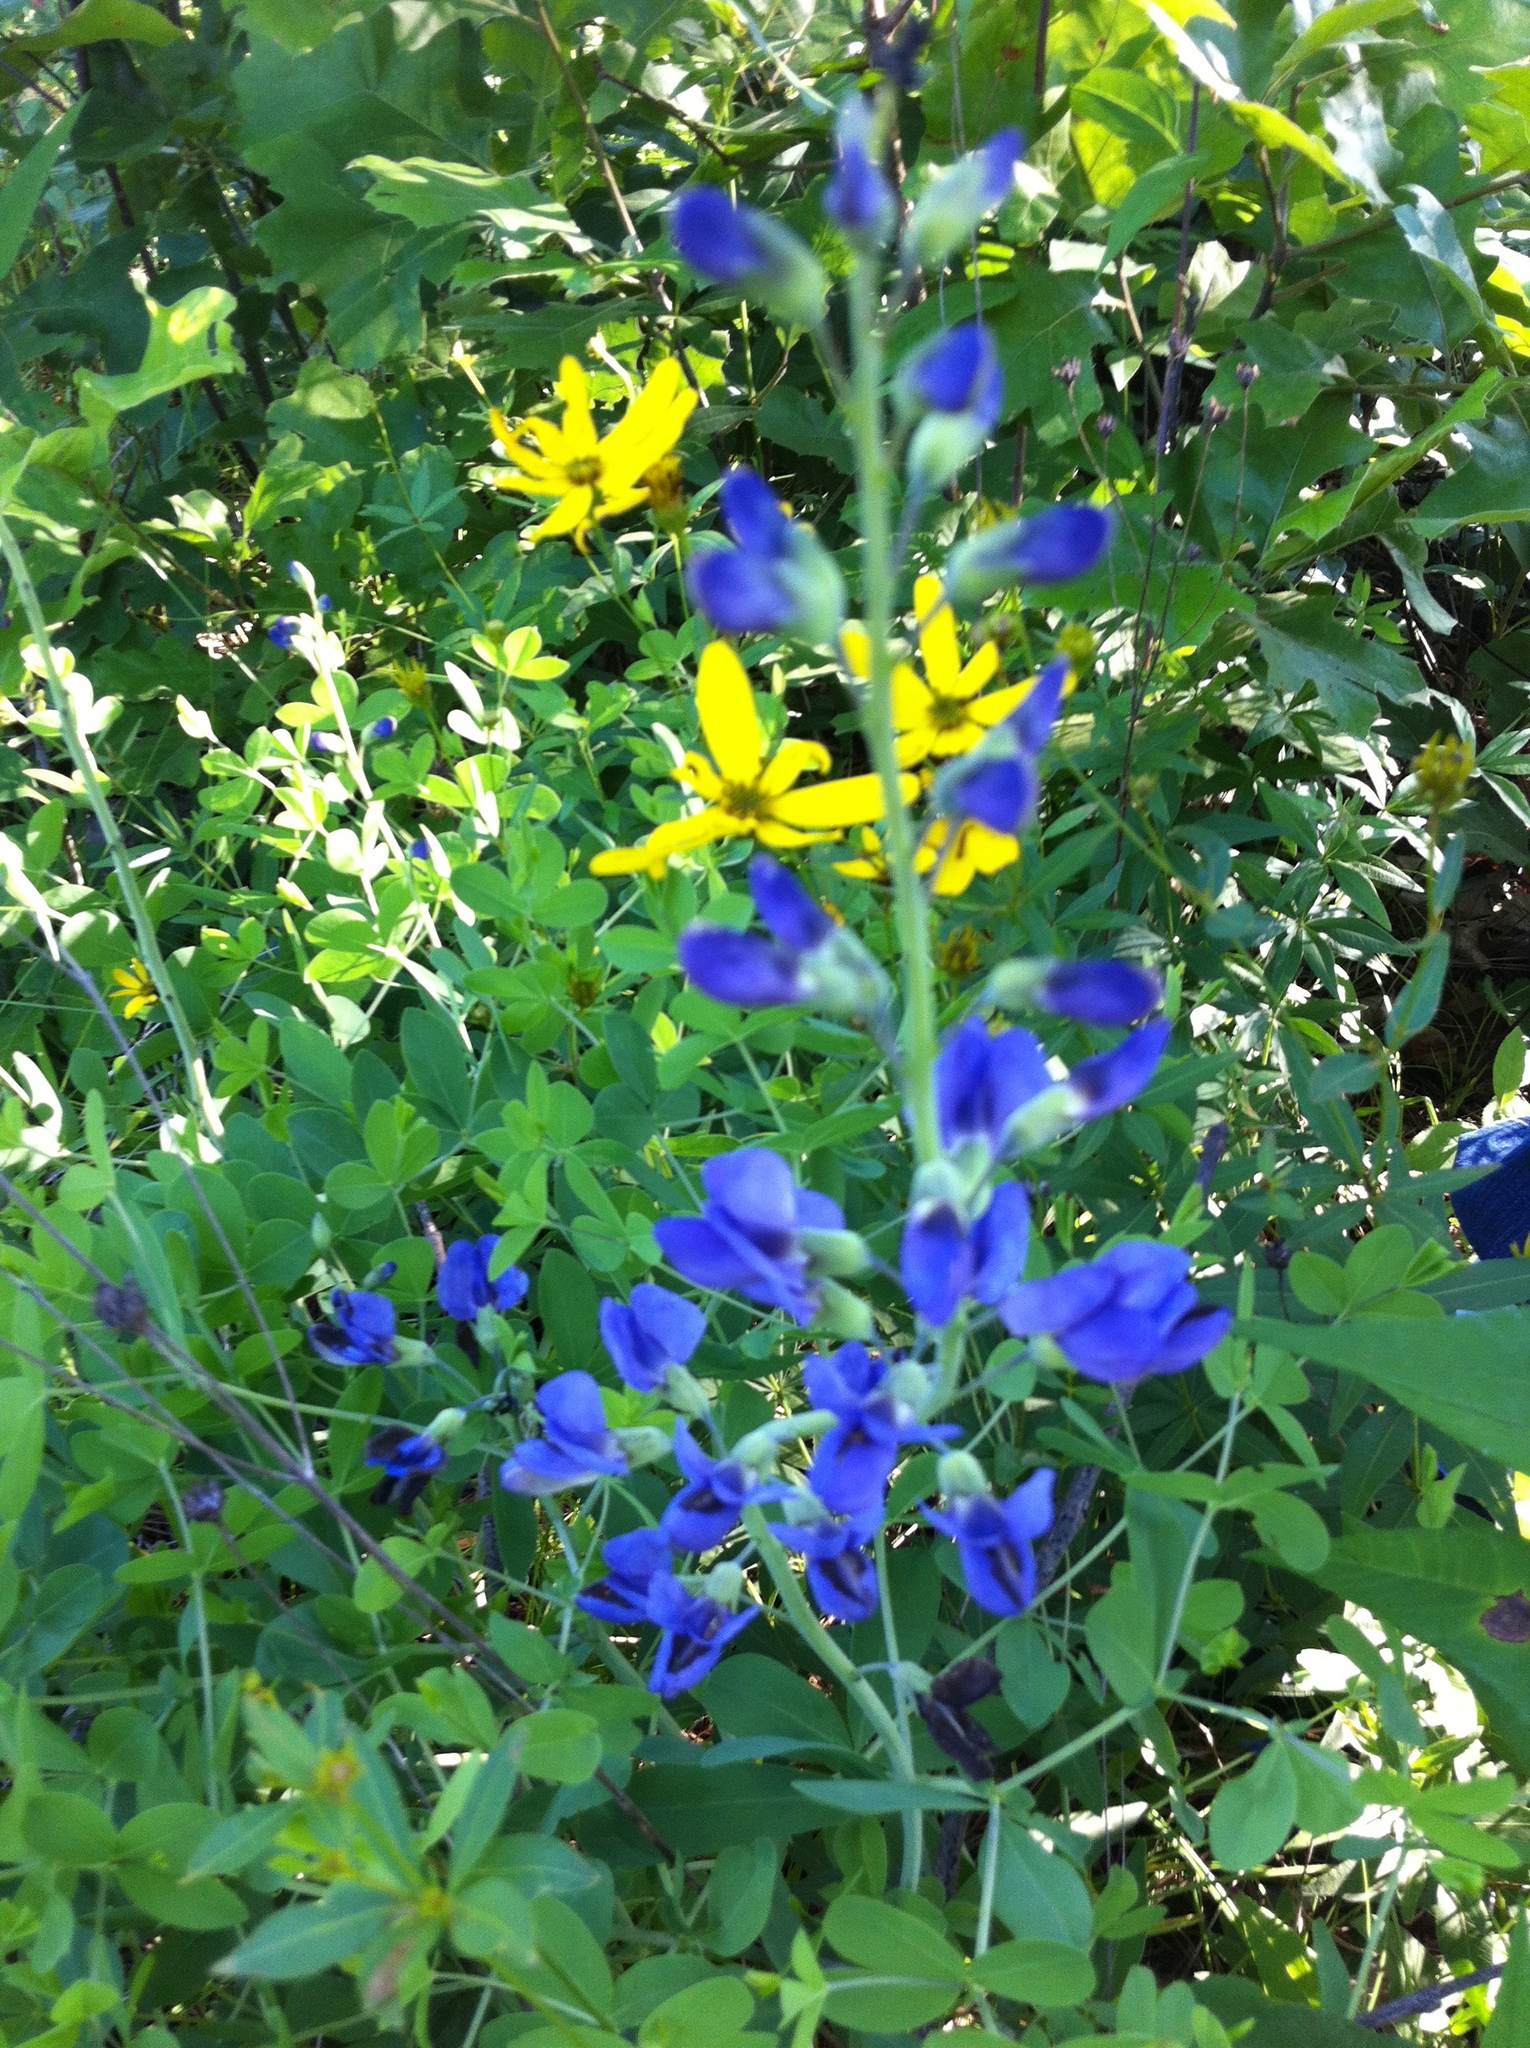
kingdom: Plantae
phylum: Tracheophyta
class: Magnoliopsida
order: Fabales
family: Fabaceae
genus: Baptisia
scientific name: Baptisia aberrans
